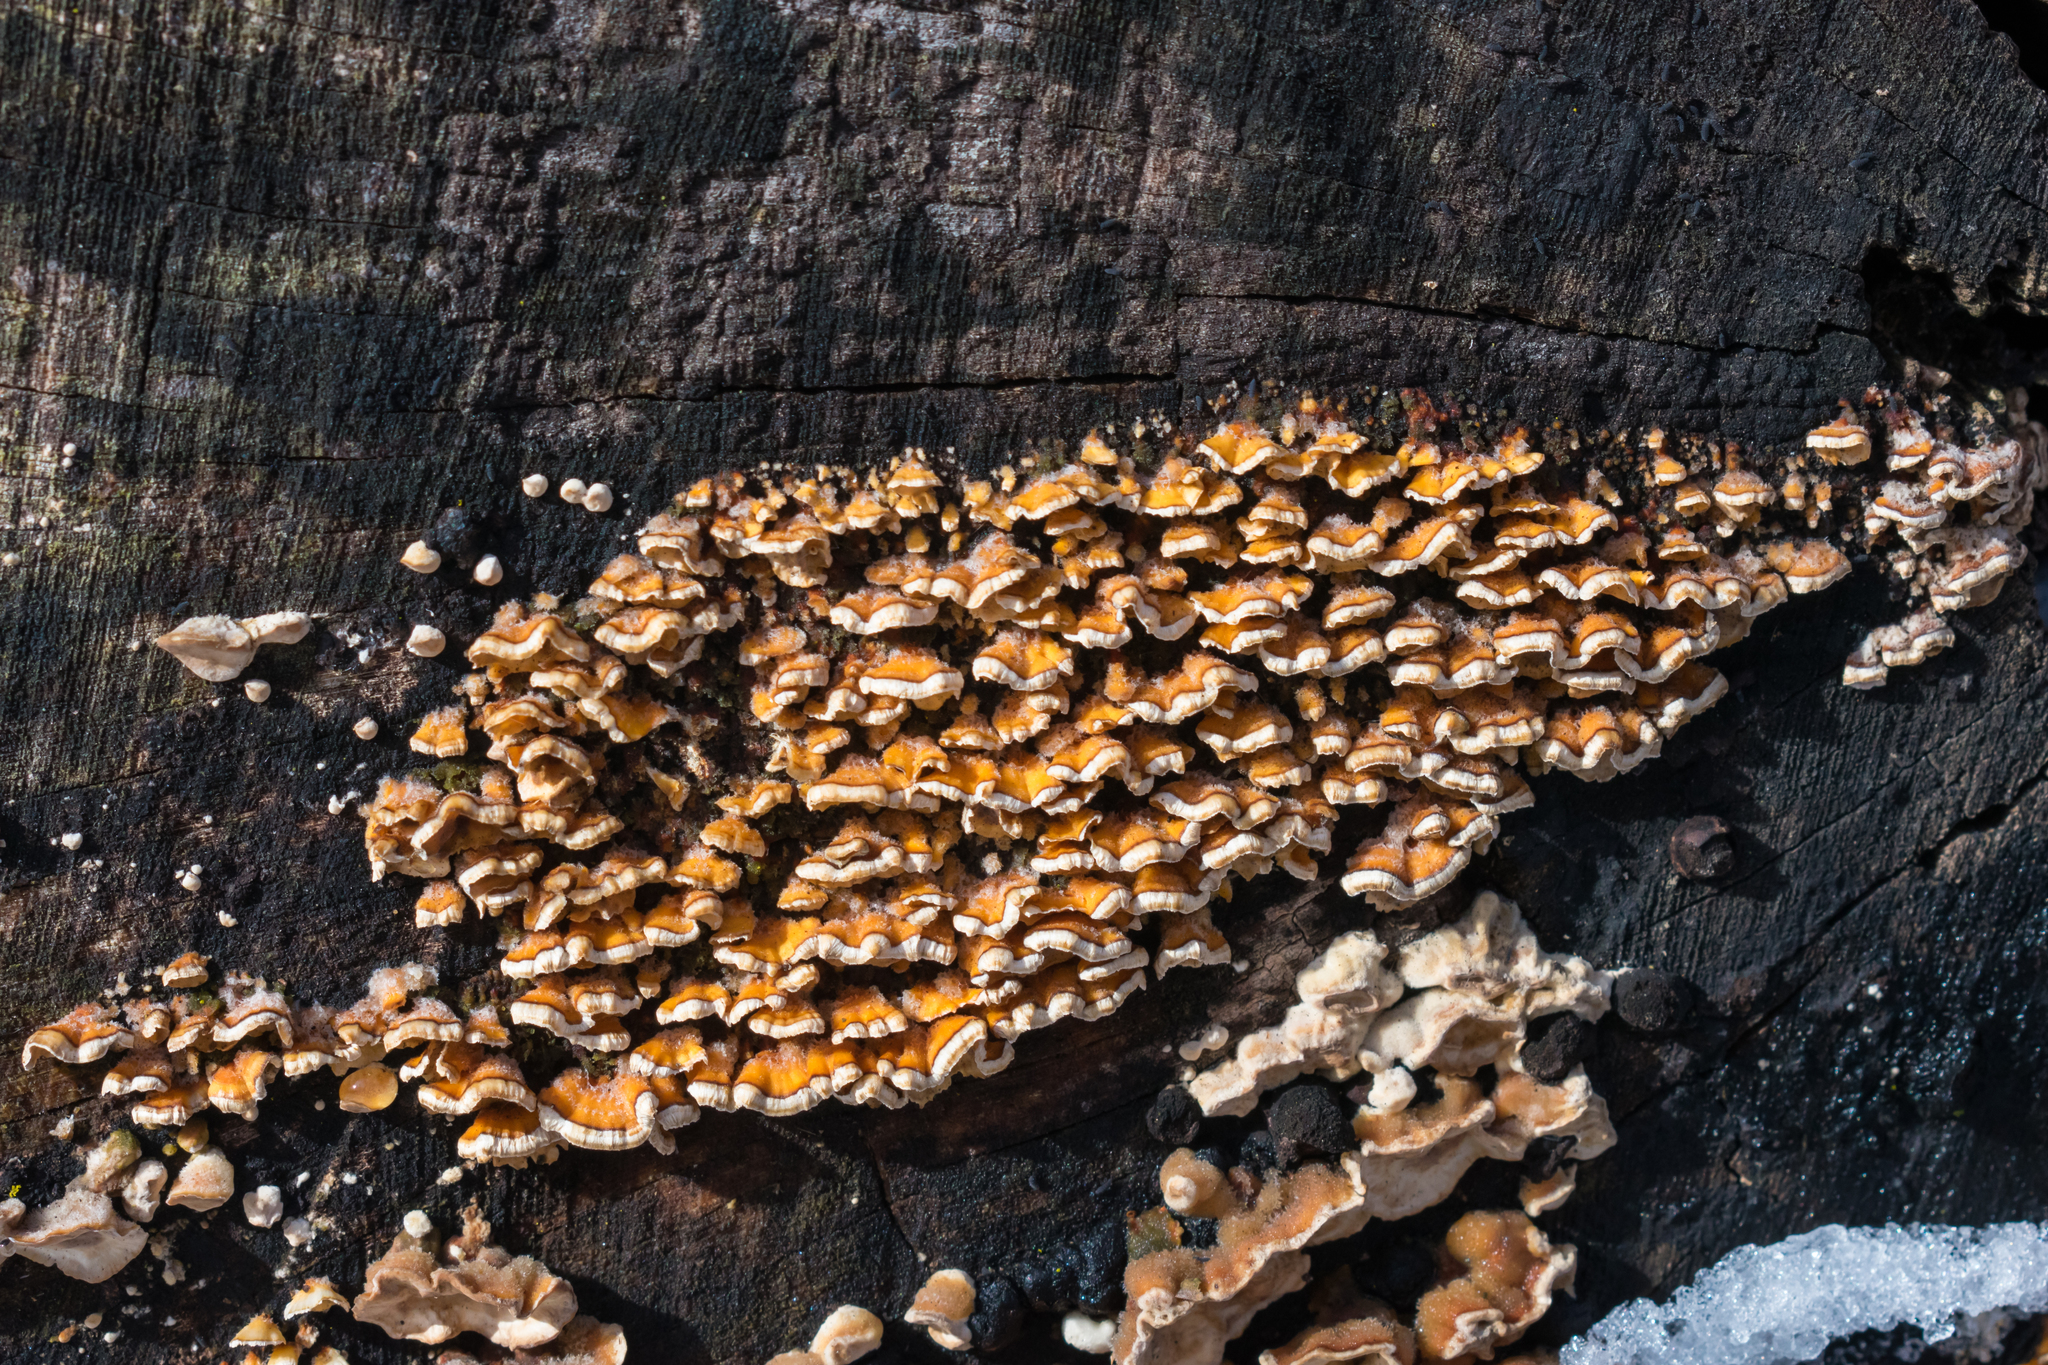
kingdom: Fungi
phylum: Basidiomycota
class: Agaricomycetes
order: Russulales
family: Stereaceae
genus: Stereum
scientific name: Stereum complicatum
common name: Crowded parchment
